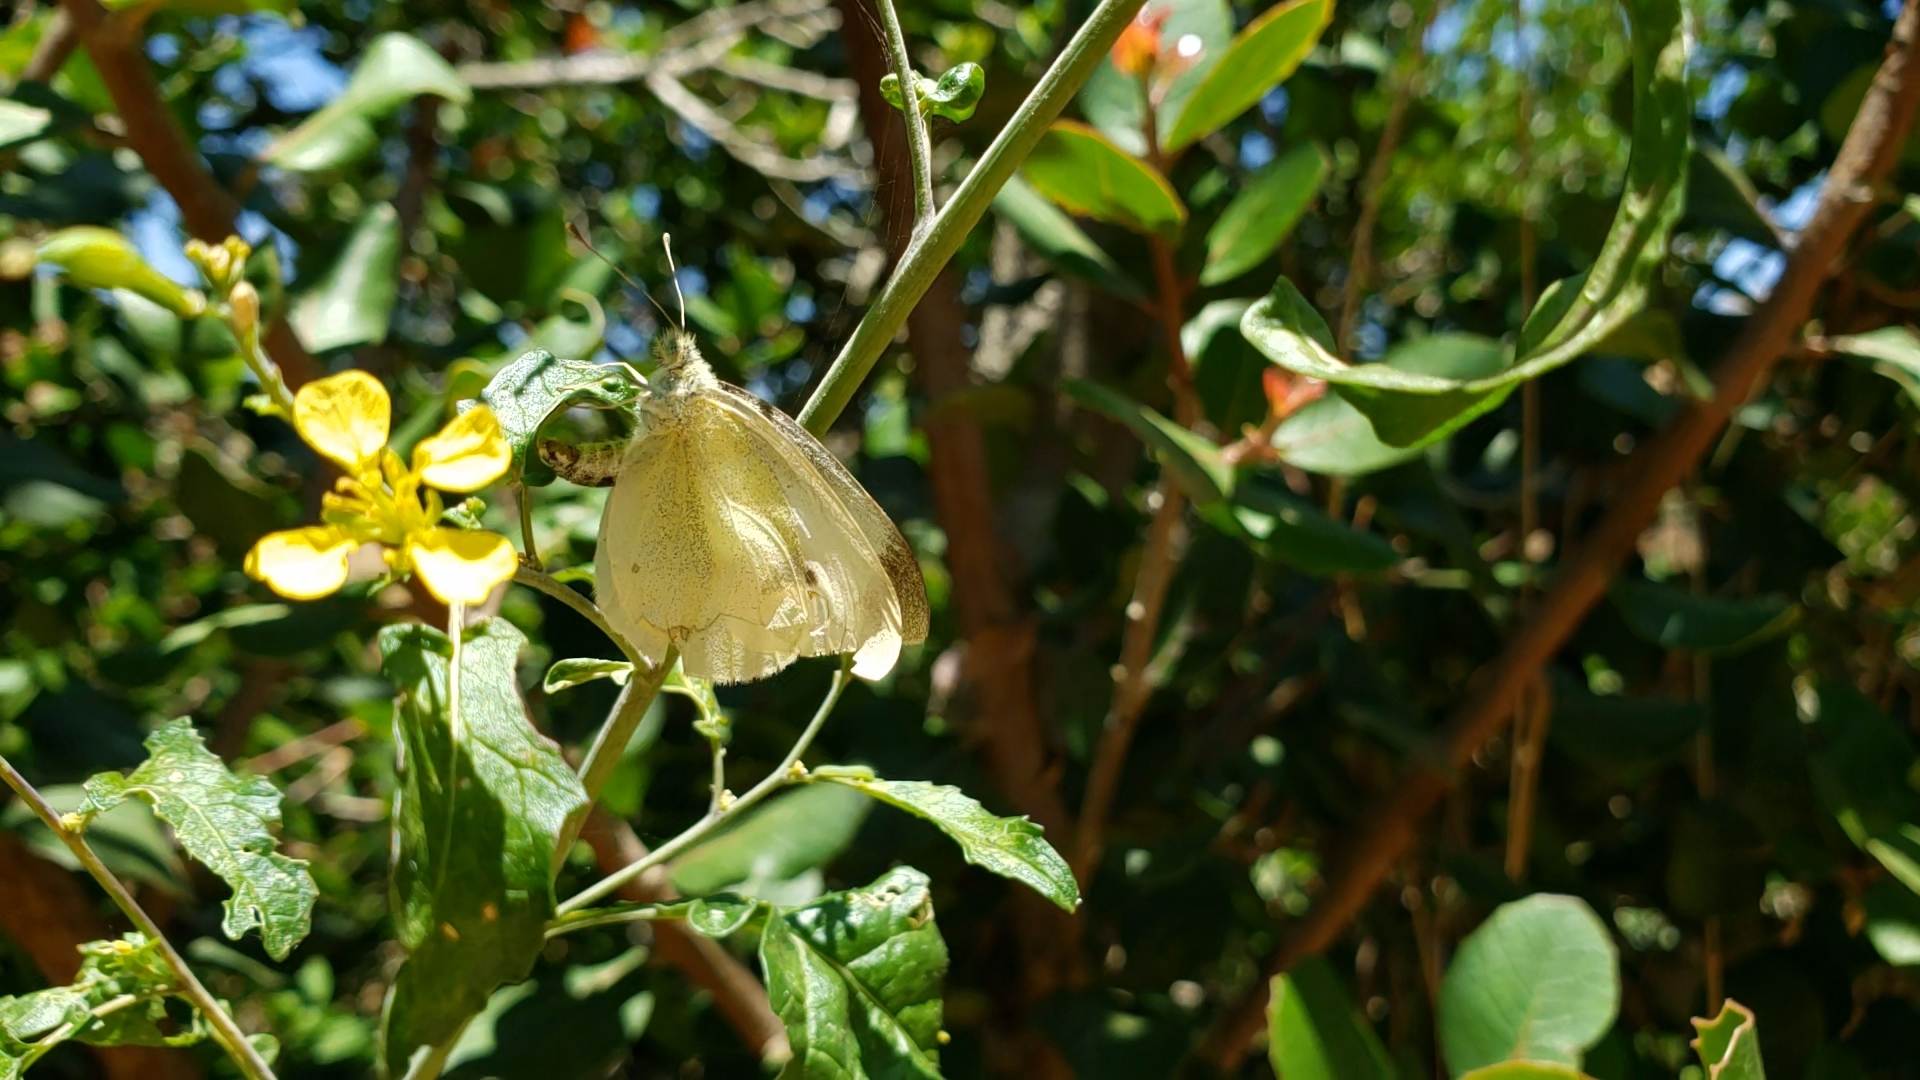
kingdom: Animalia
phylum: Arthropoda
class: Insecta
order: Lepidoptera
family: Pieridae
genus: Pieris
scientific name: Pieris rapae
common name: Small white
